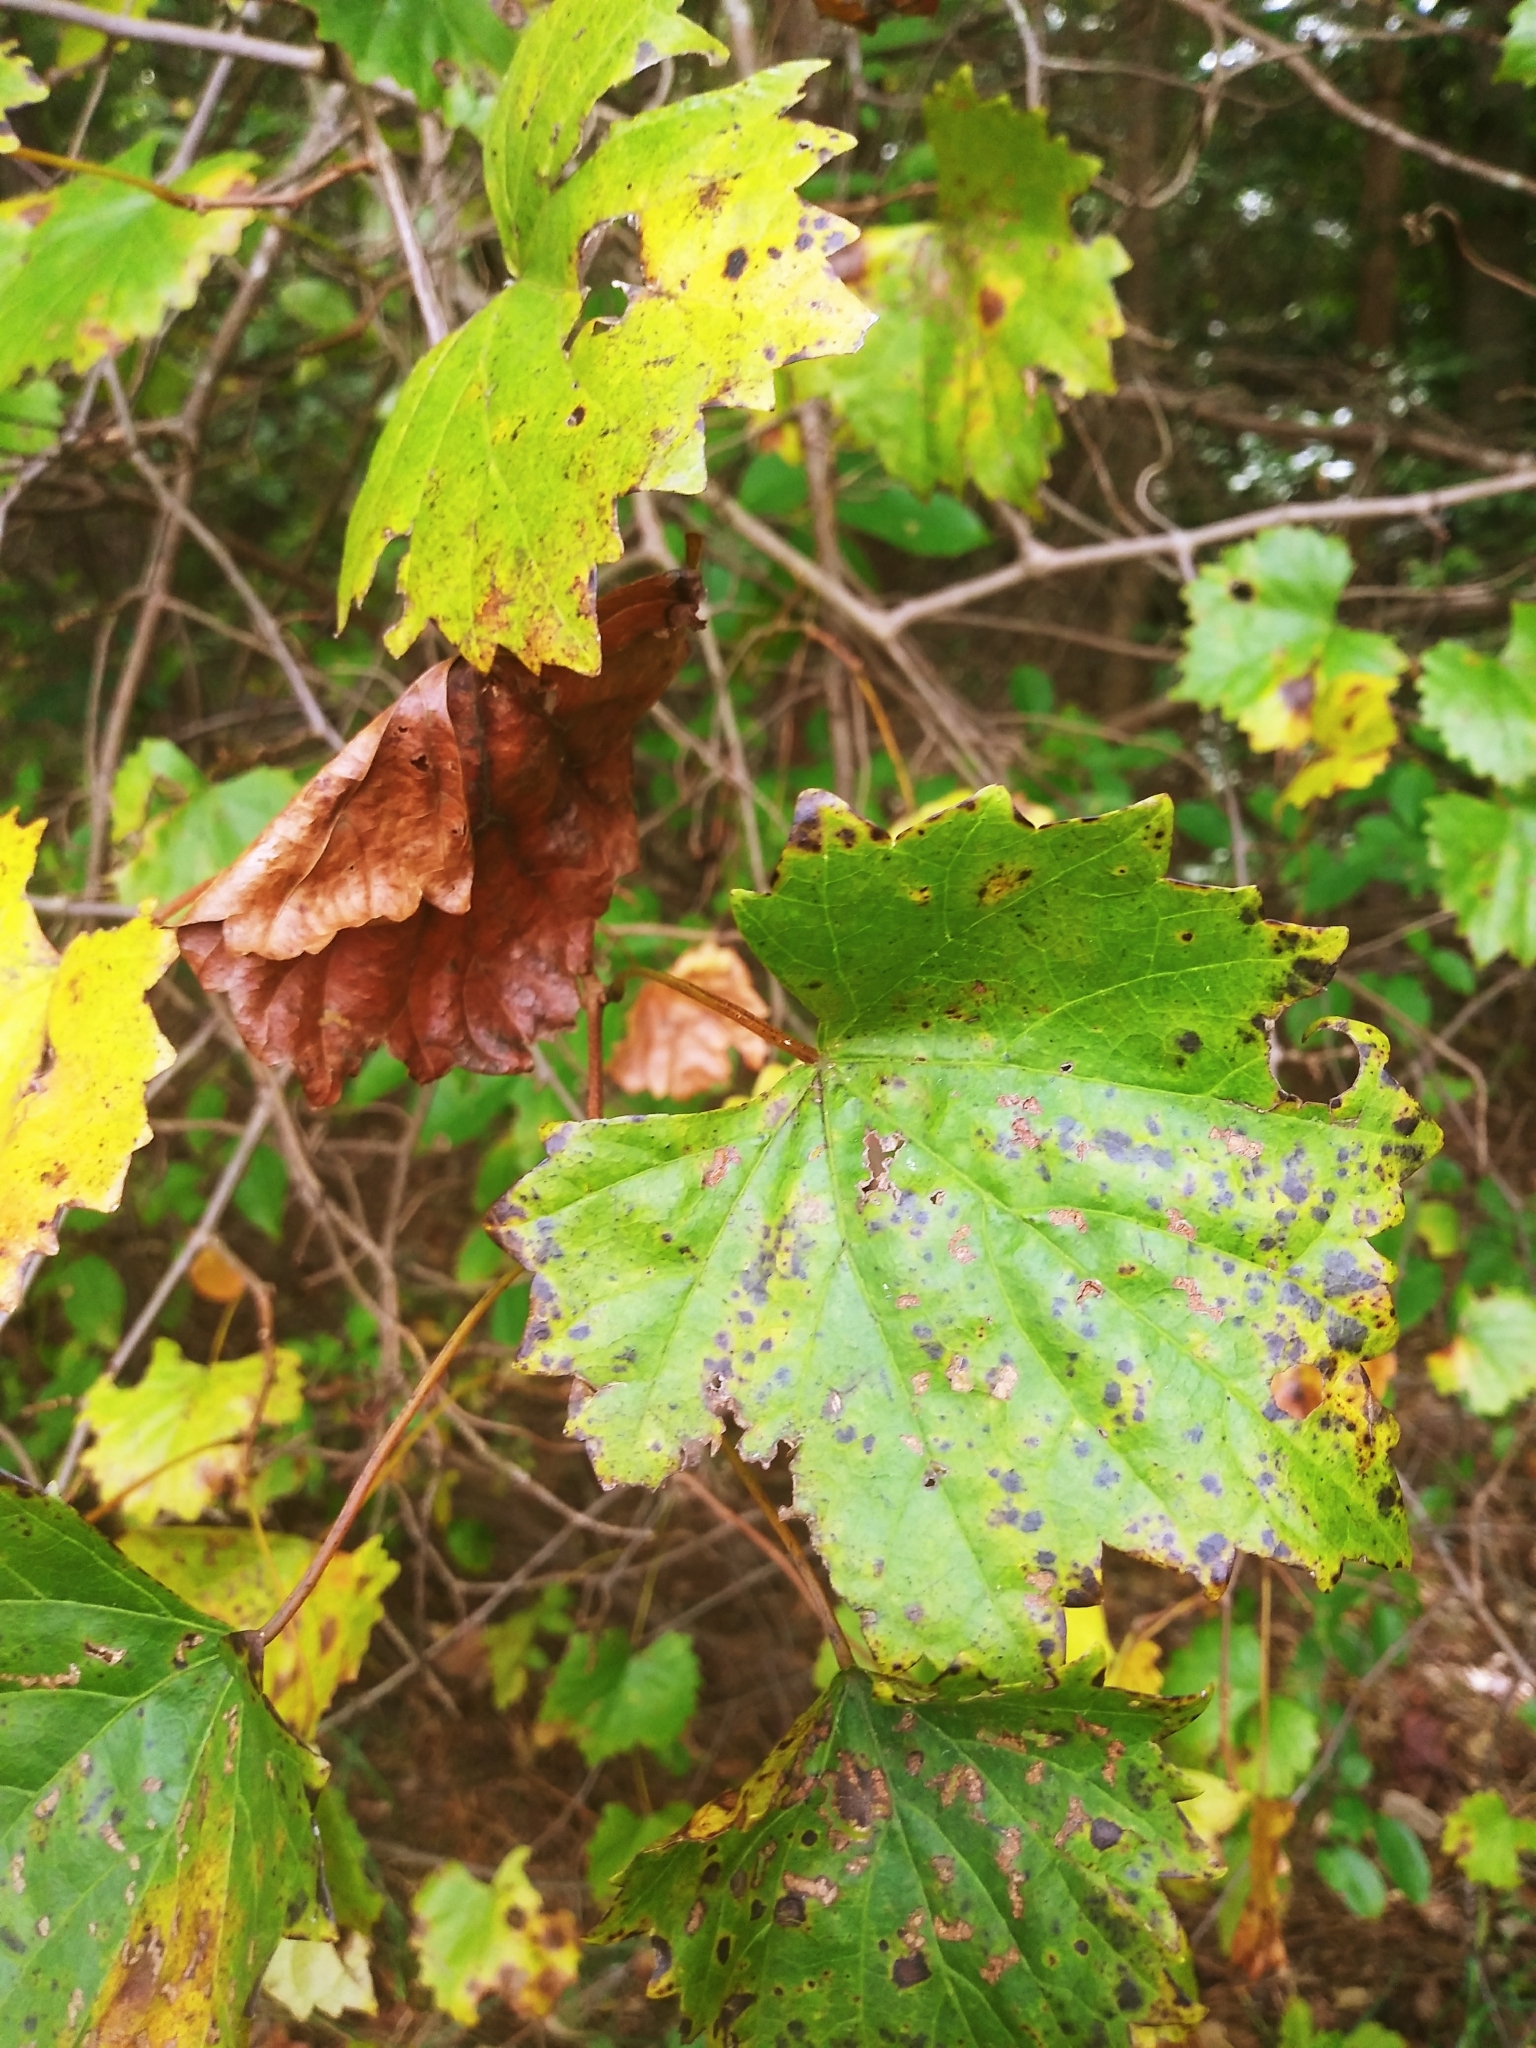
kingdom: Plantae
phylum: Tracheophyta
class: Magnoliopsida
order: Vitales
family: Vitaceae
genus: Vitis
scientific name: Vitis rotundifolia
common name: Muscadine grape
